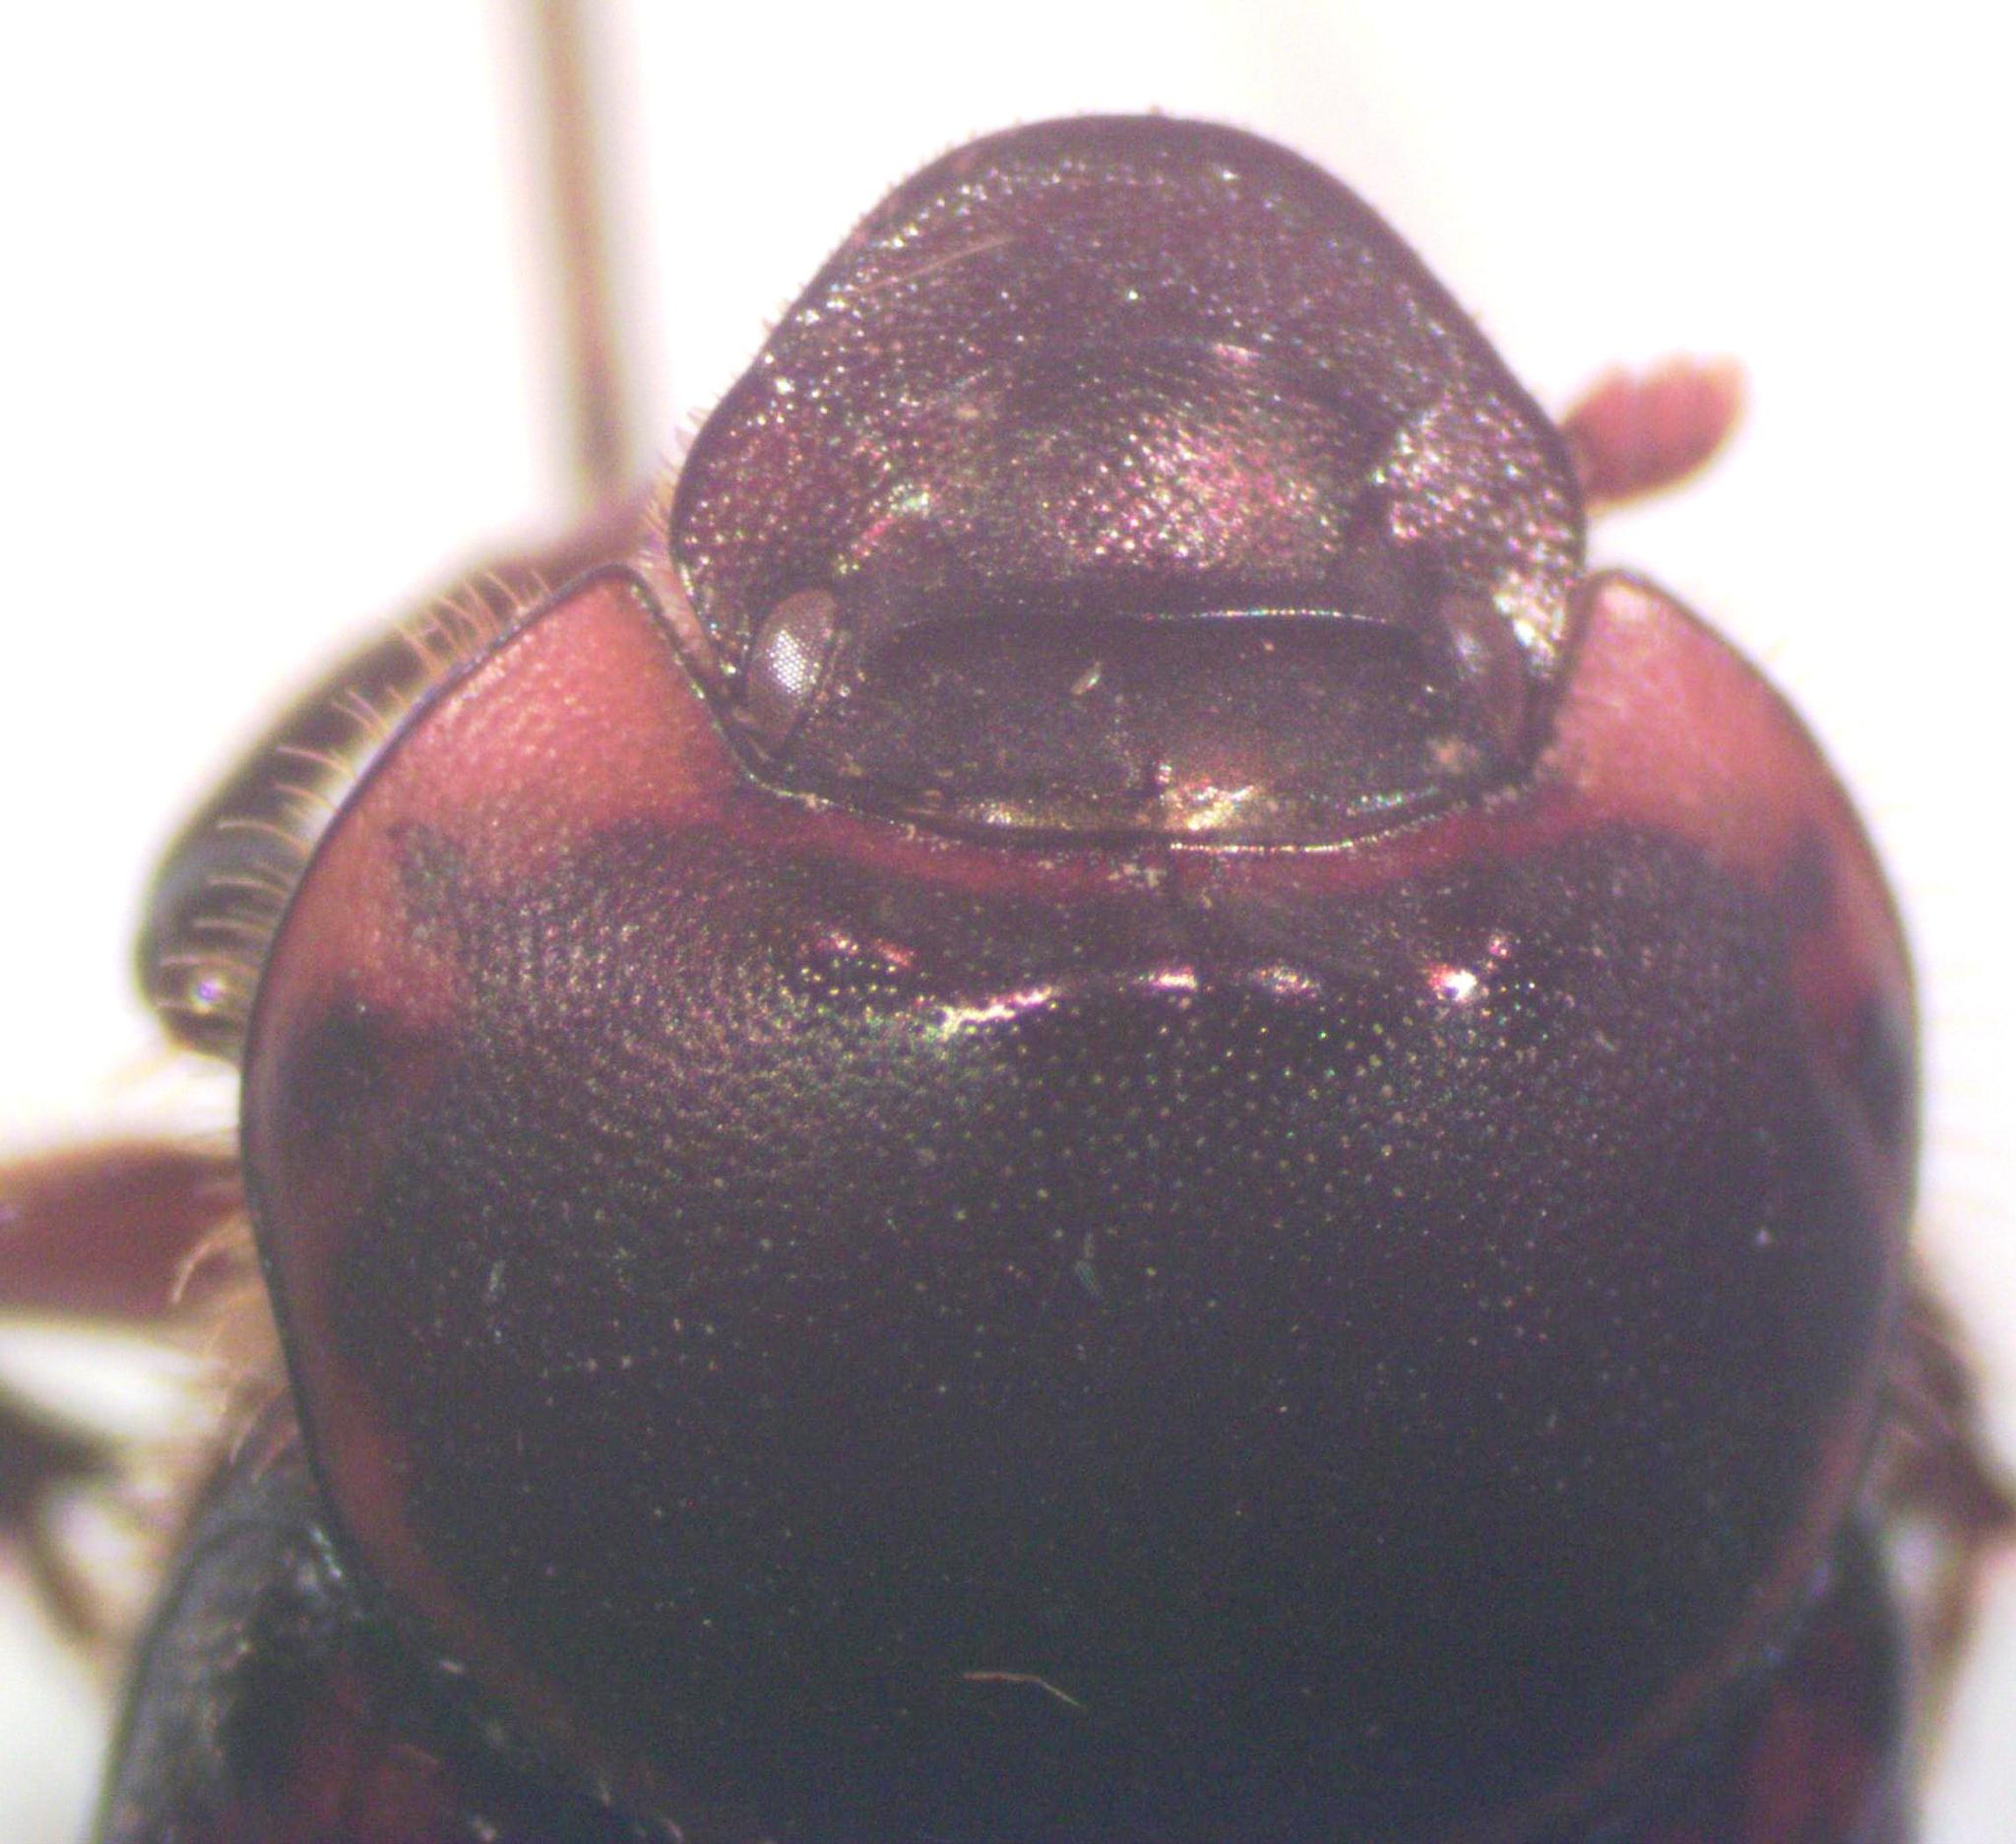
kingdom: Animalia
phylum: Arthropoda
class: Insecta
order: Coleoptera
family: Scarabaeidae
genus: Onthophagus
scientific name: Onthophagus gazellinus
